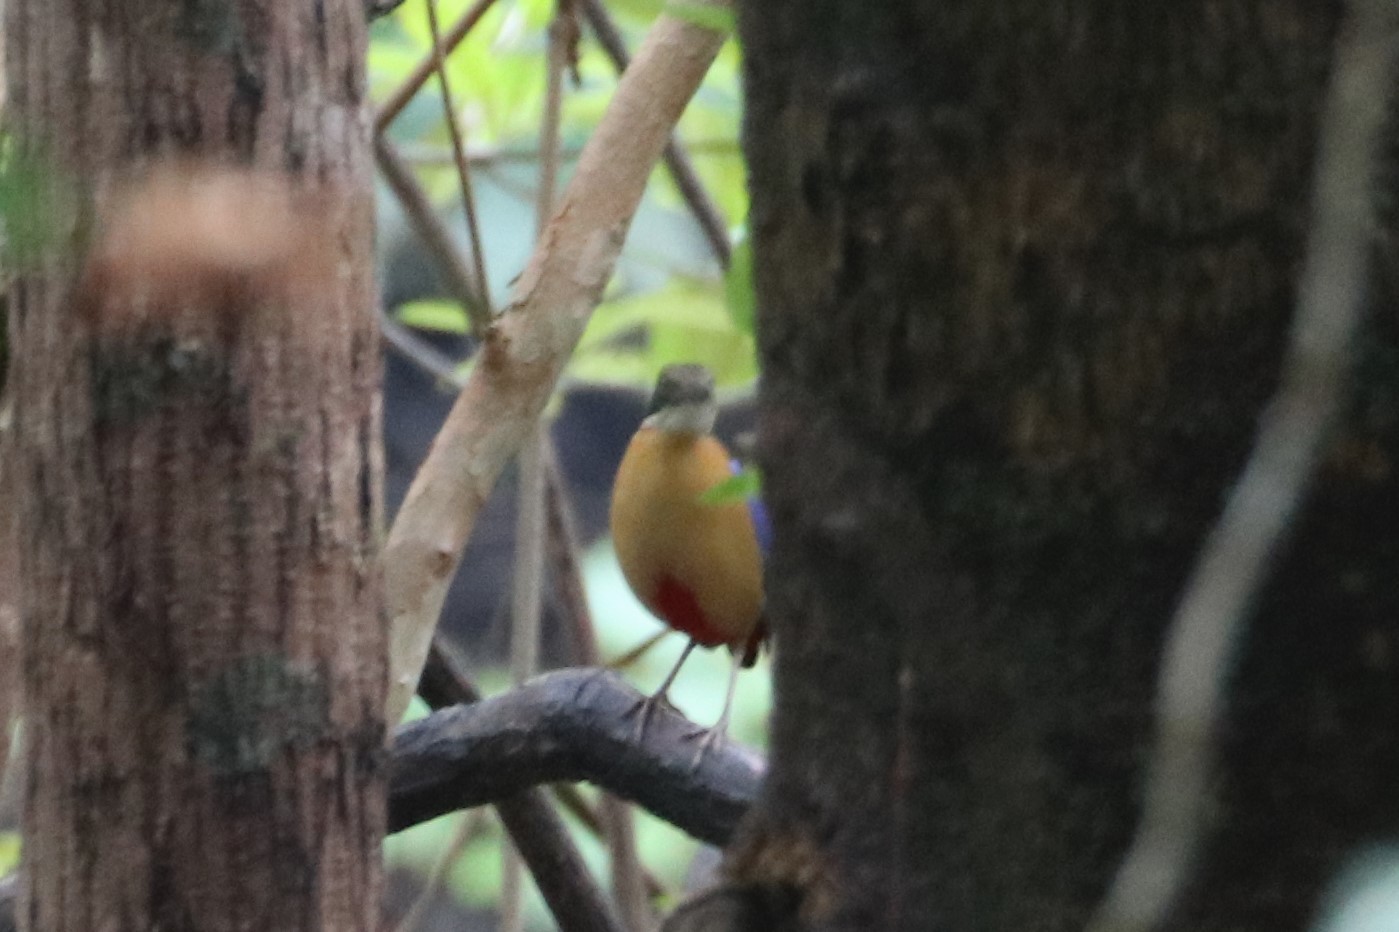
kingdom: Animalia
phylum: Chordata
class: Aves
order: Passeriformes
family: Pittidae
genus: Pitta
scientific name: Pitta megarhyncha
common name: Mangrove pitta
